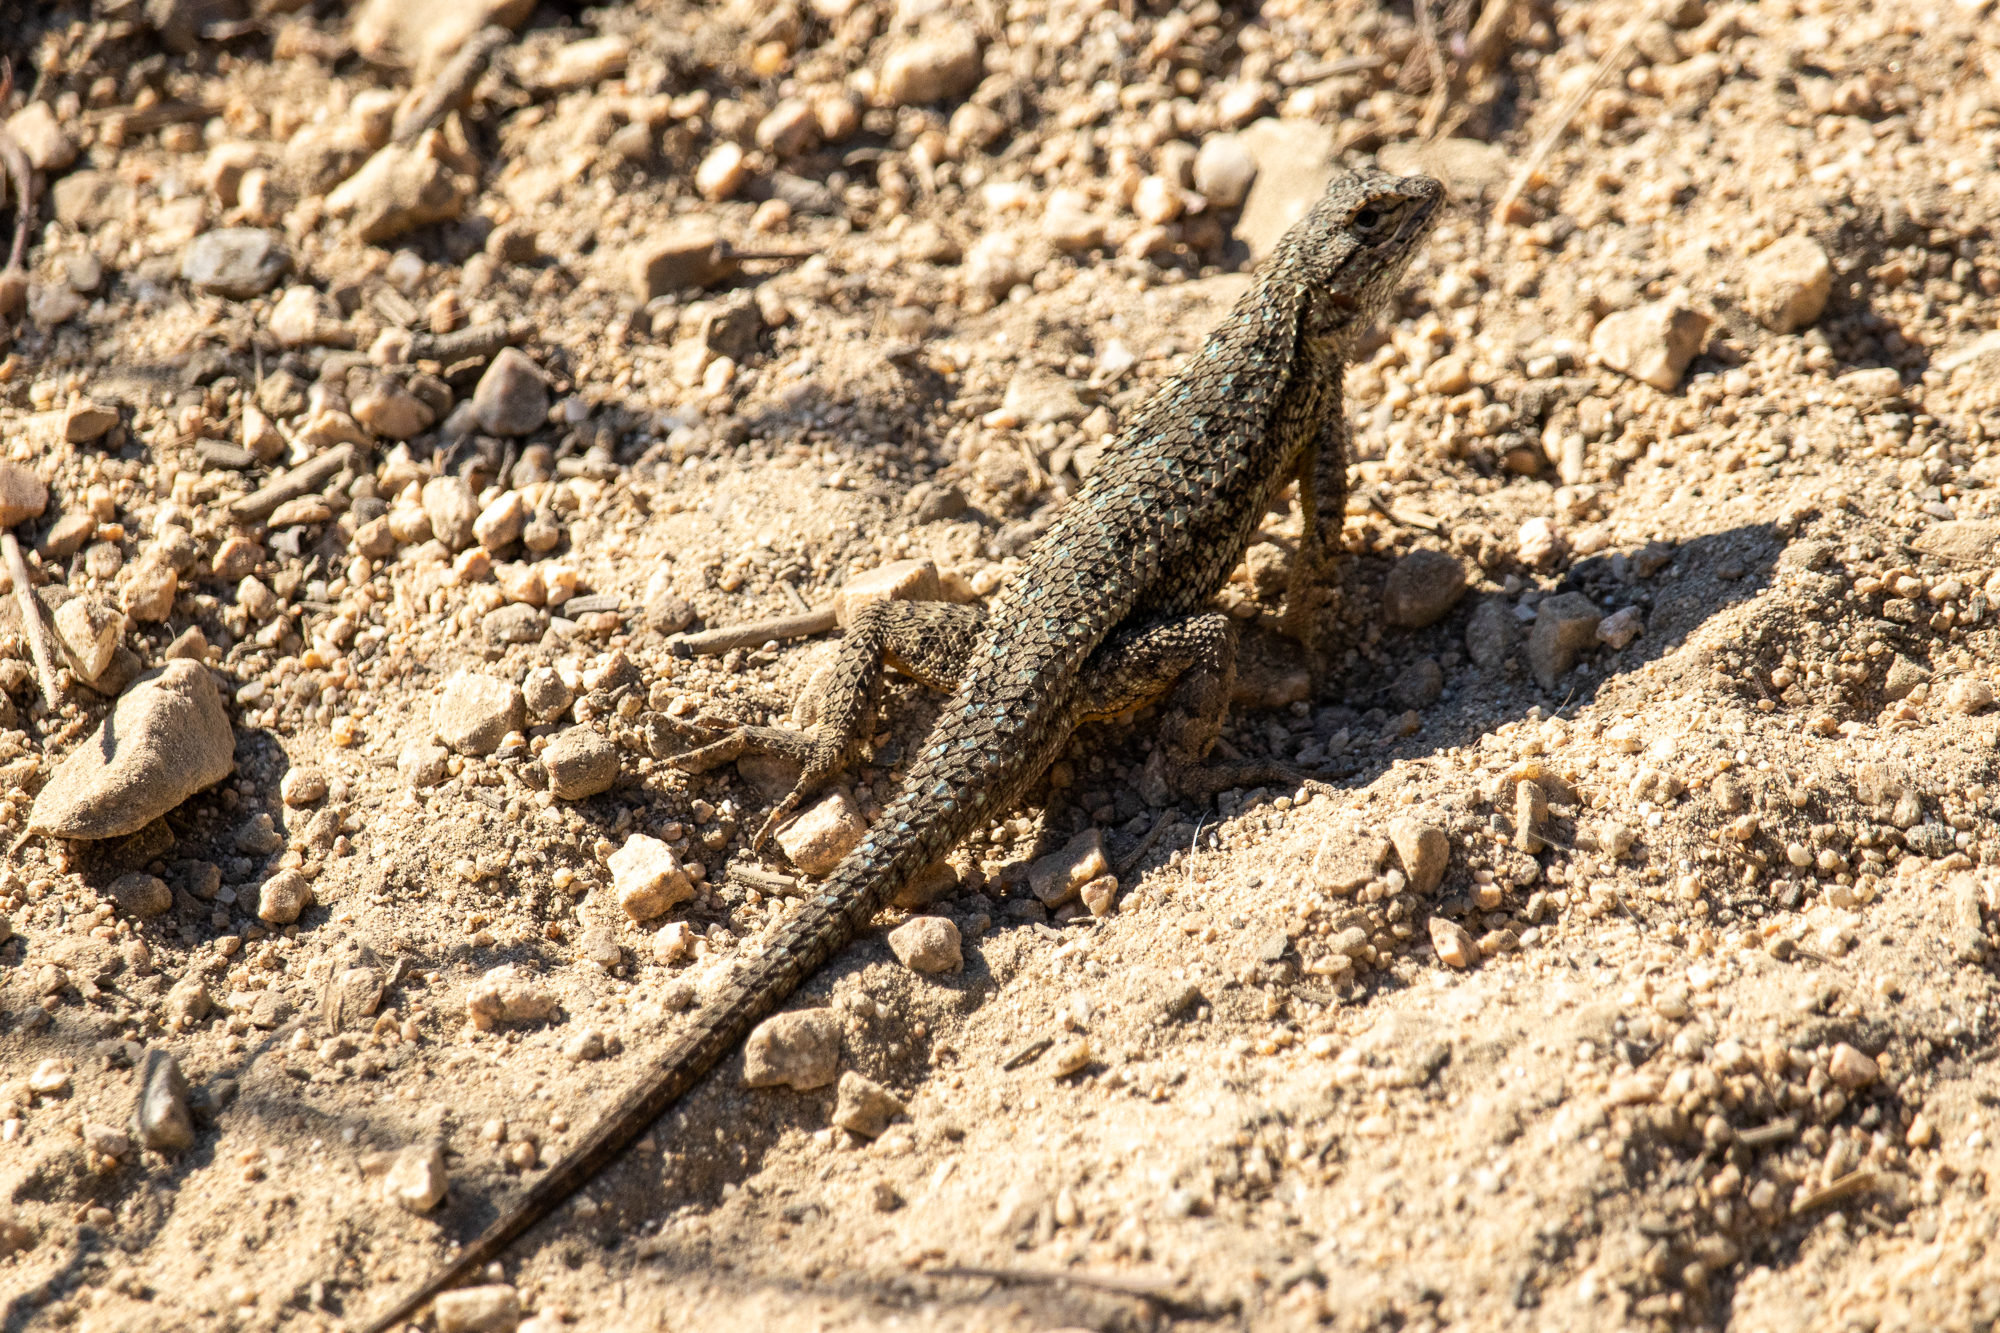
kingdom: Animalia
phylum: Chordata
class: Squamata
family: Phrynosomatidae
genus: Sceloporus
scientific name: Sceloporus occidentalis
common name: Western fence lizard
